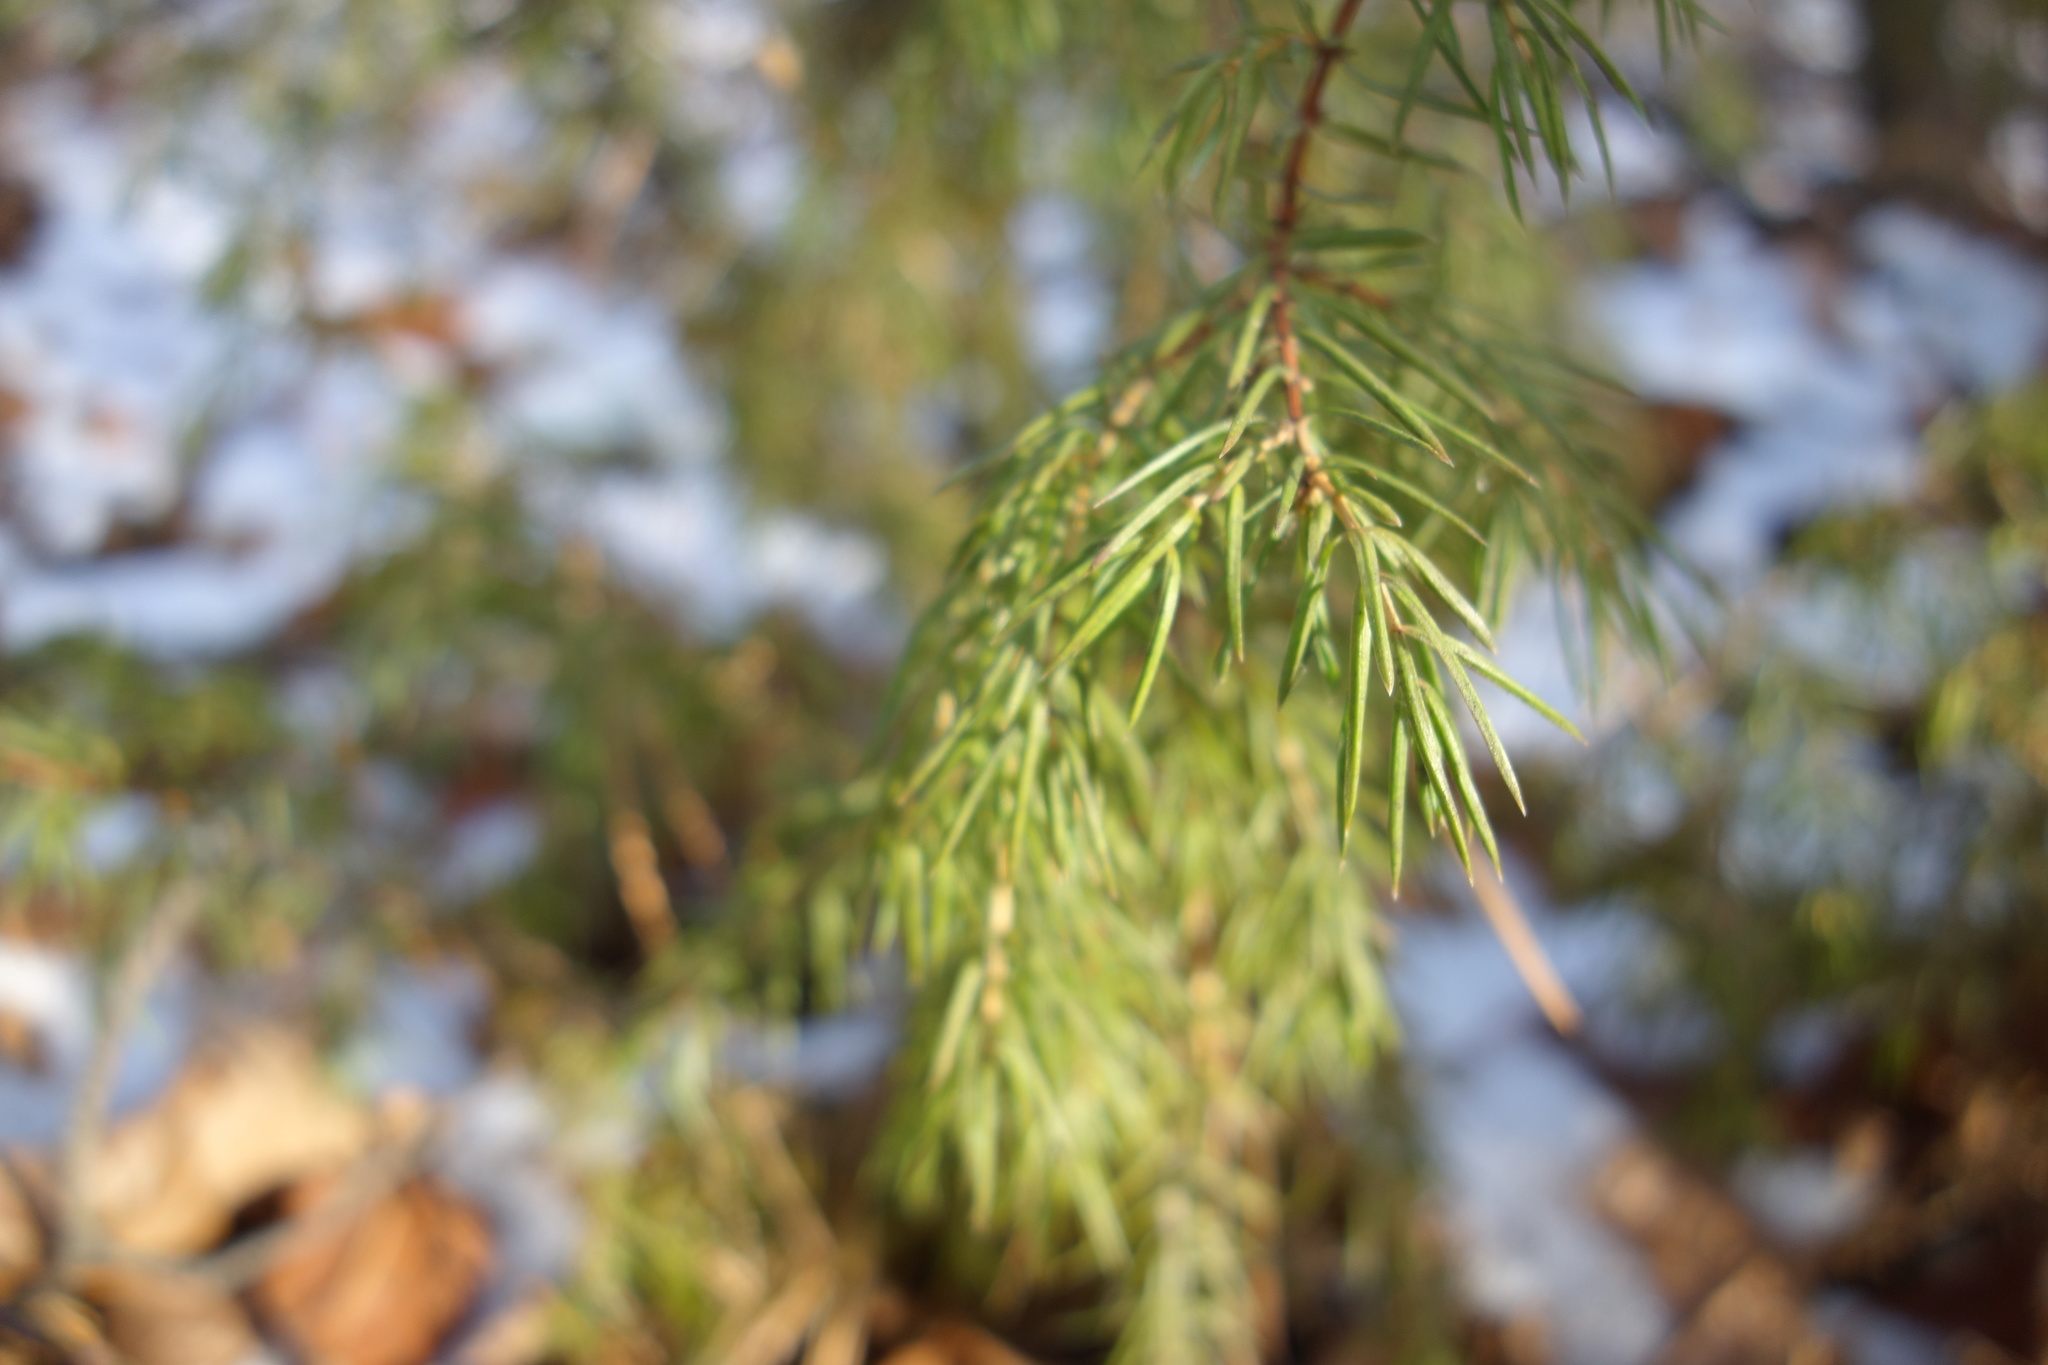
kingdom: Plantae
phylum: Tracheophyta
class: Pinopsida
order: Pinales
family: Cupressaceae
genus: Juniperus
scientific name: Juniperus communis
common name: Common juniper
